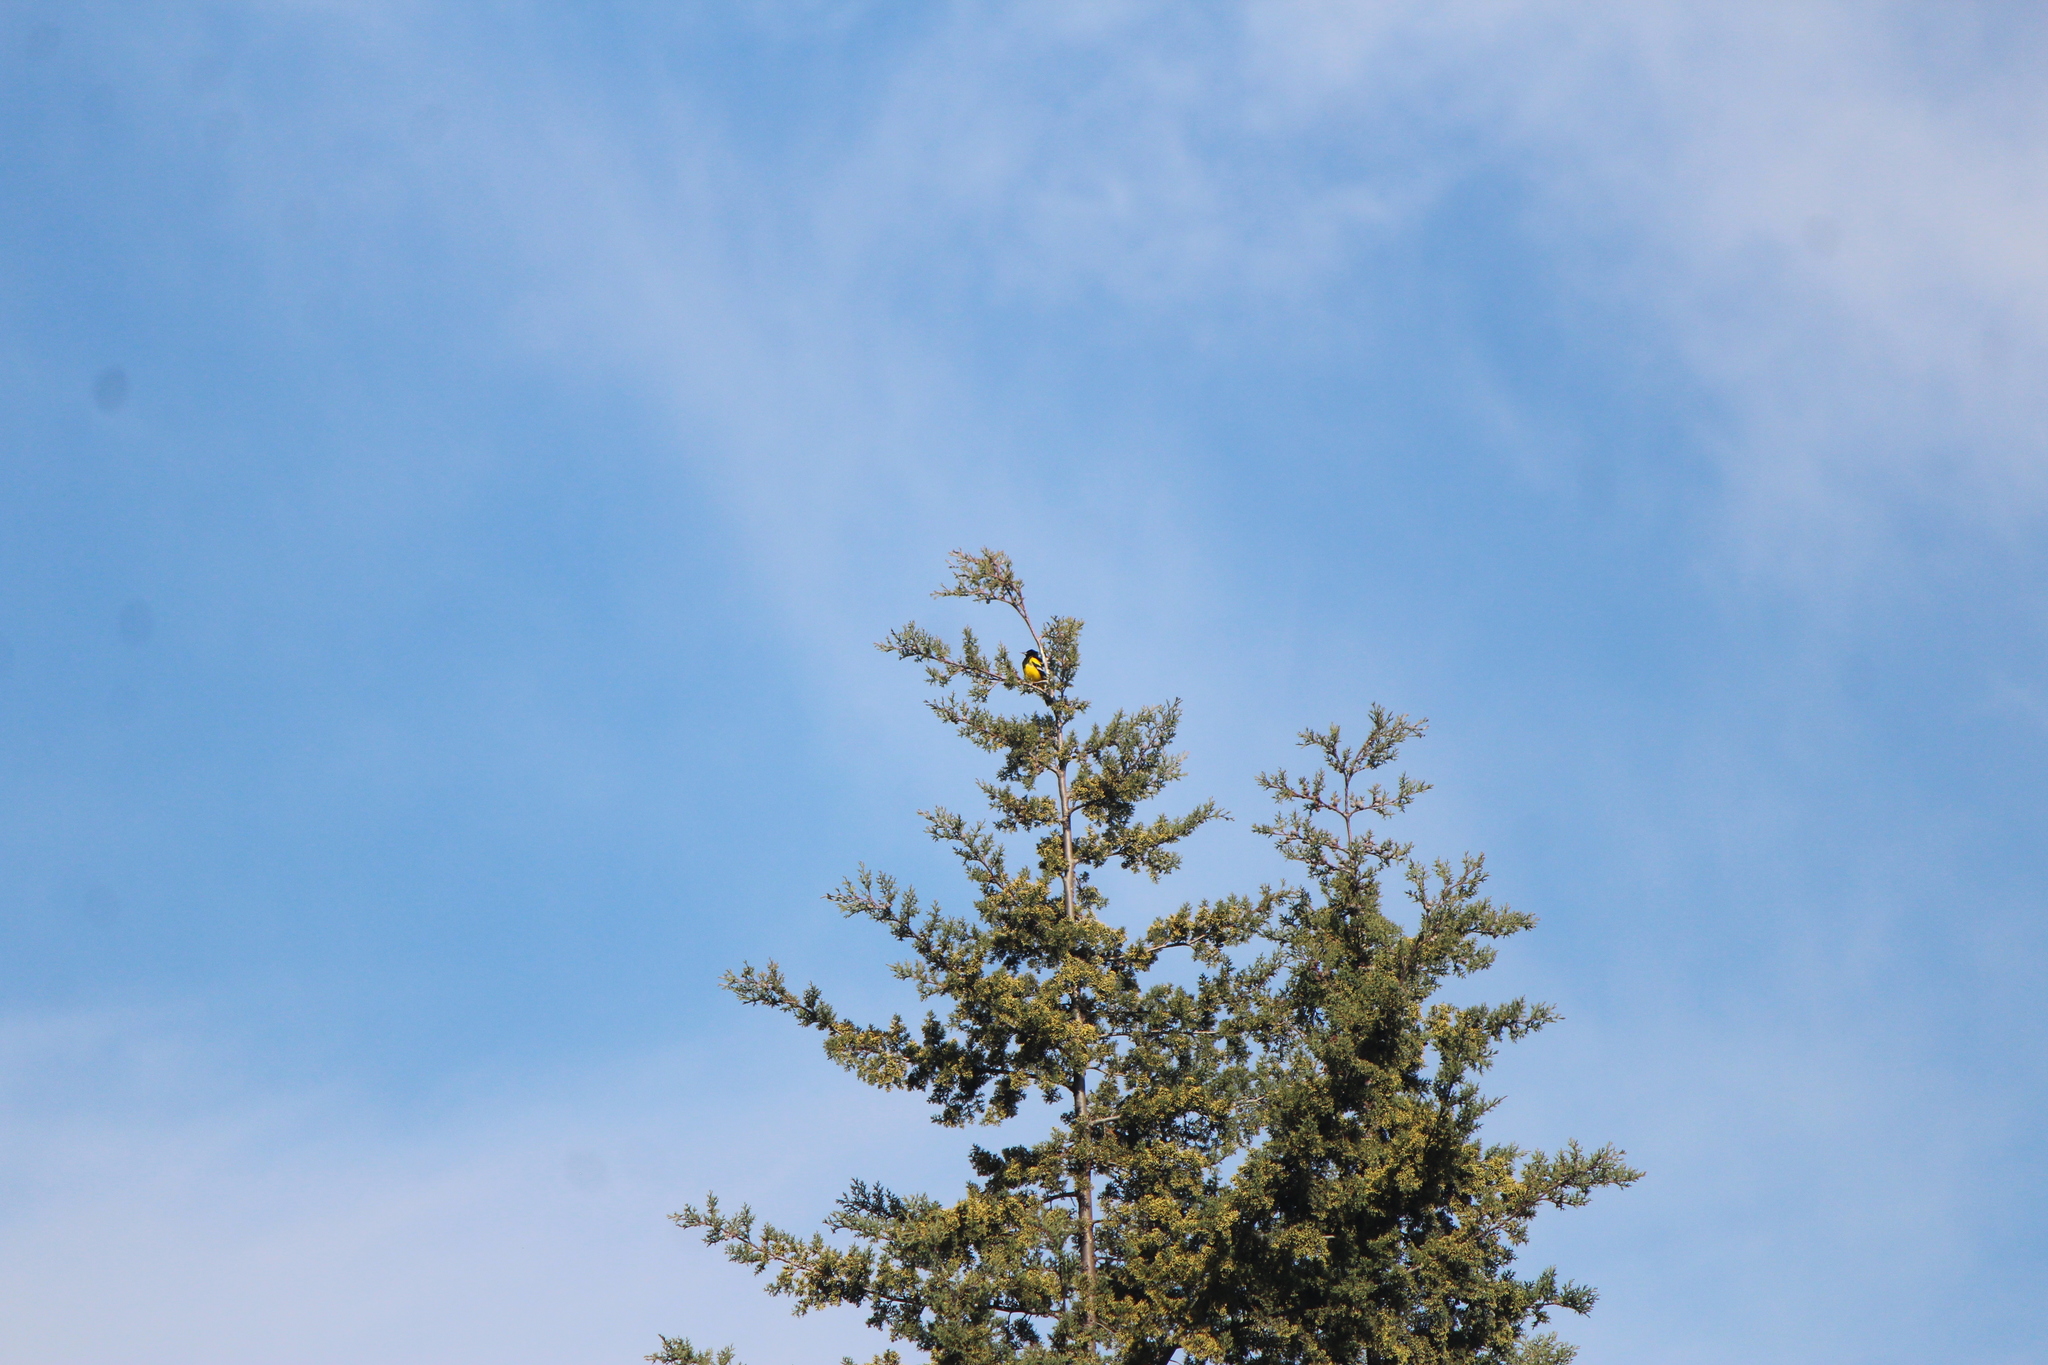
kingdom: Animalia
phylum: Chordata
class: Aves
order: Passeriformes
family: Icteridae
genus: Icterus
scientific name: Icterus parisorum
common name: Scott's oriole
